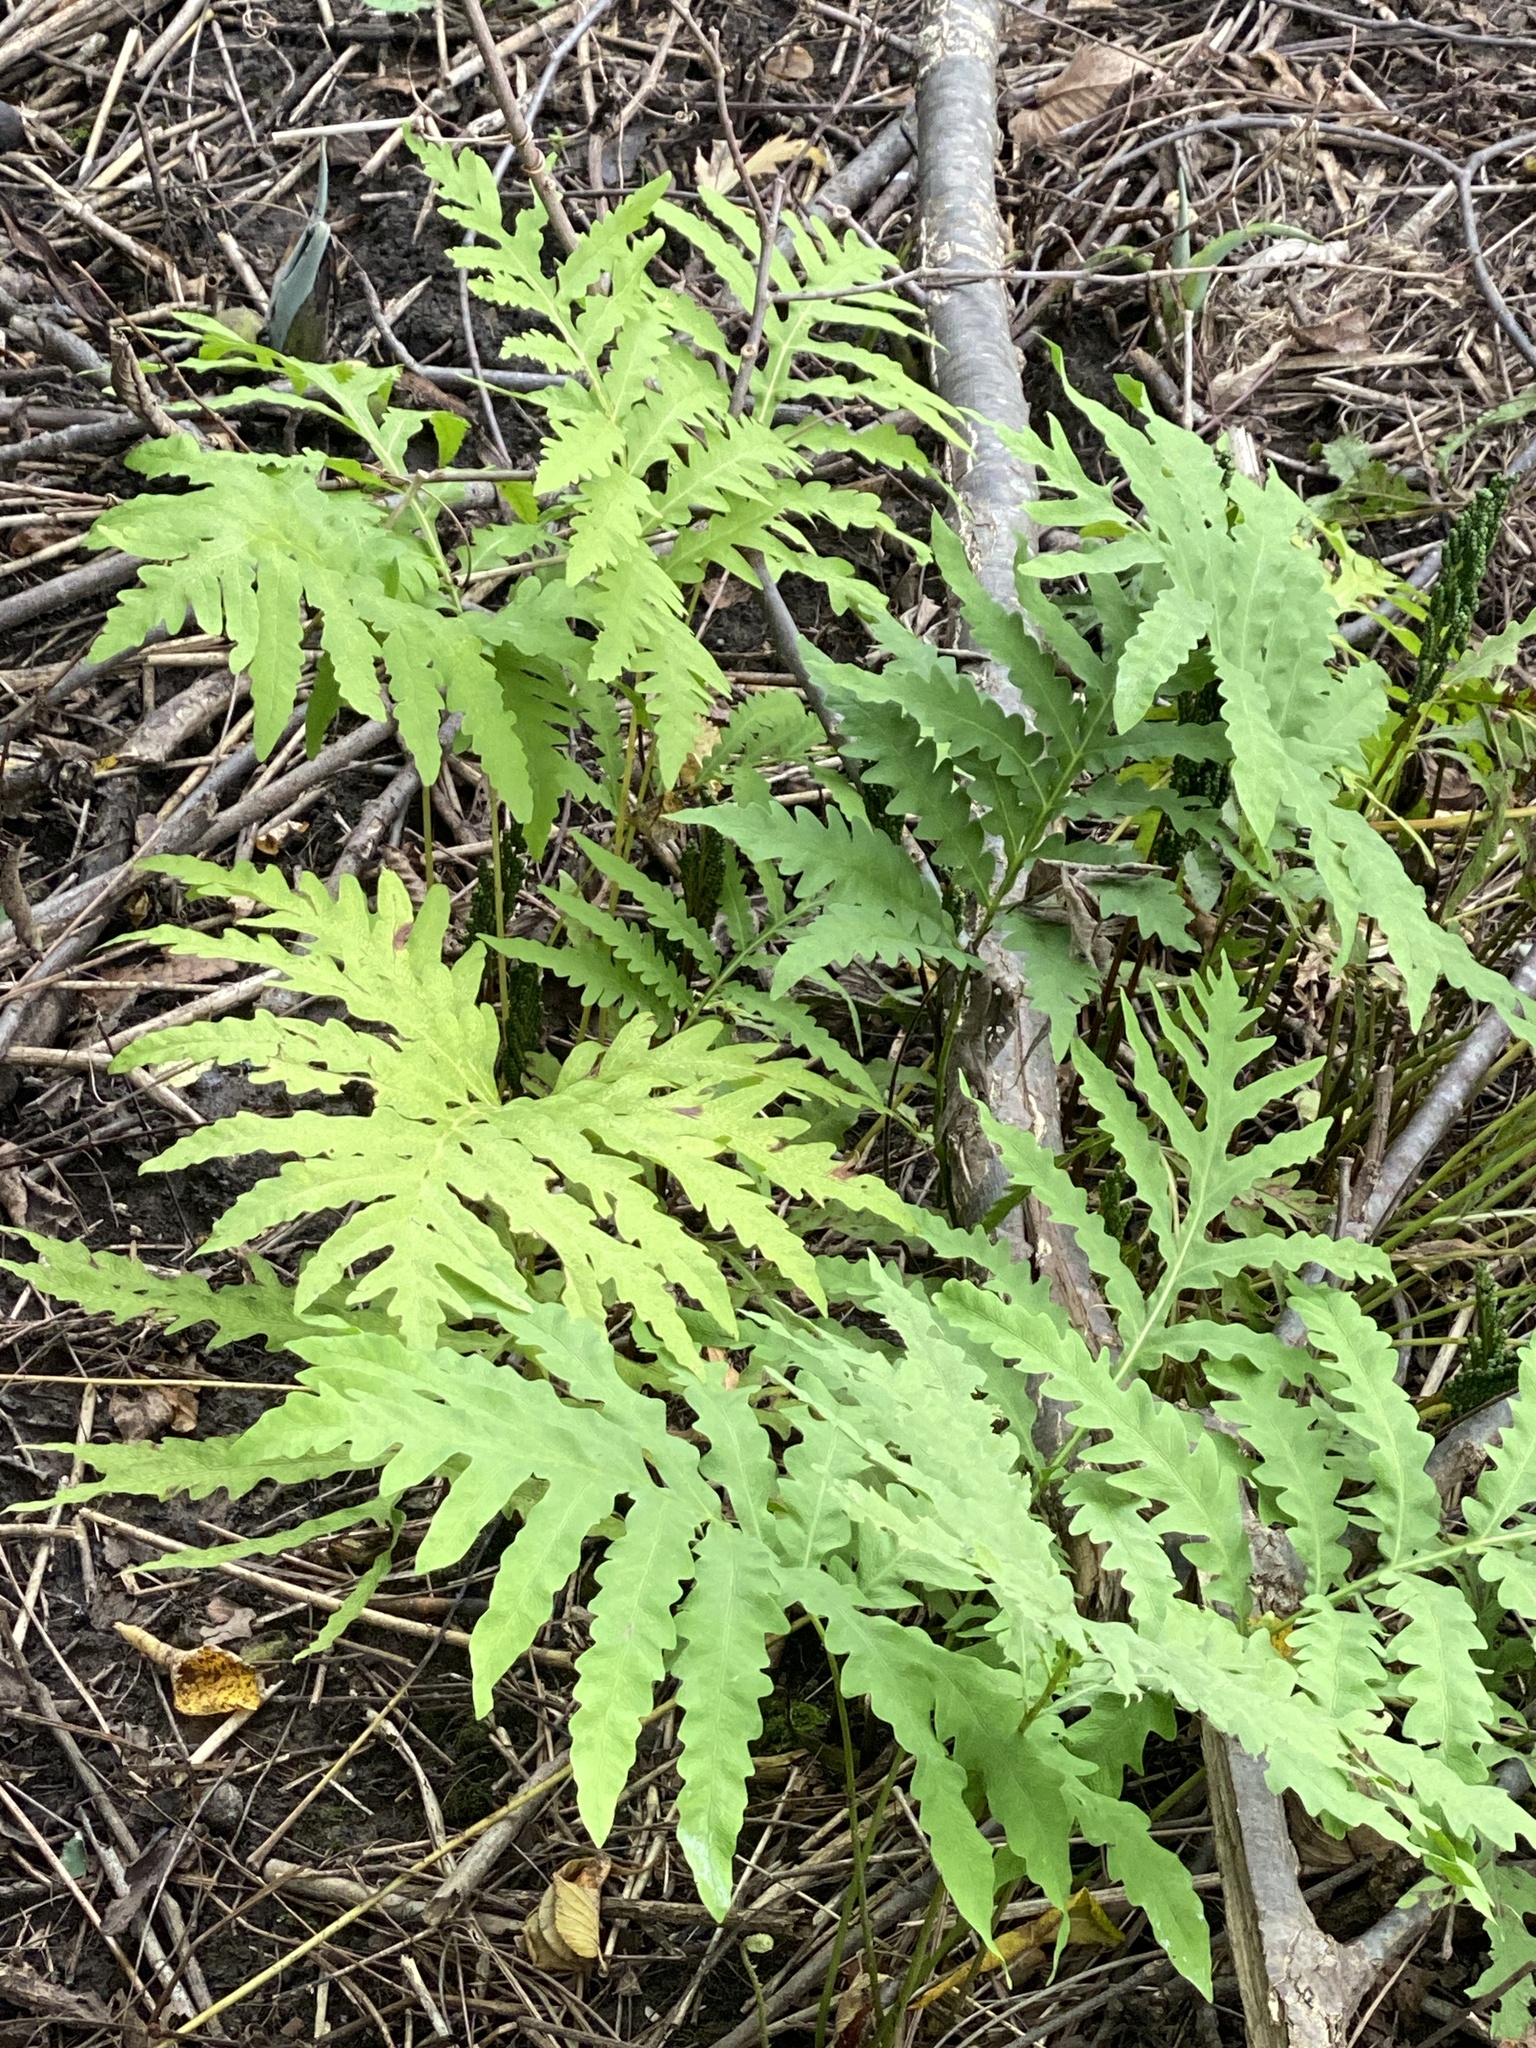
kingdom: Plantae
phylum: Tracheophyta
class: Polypodiopsida
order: Polypodiales
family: Onocleaceae
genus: Onoclea
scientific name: Onoclea sensibilis
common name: Sensitive fern
